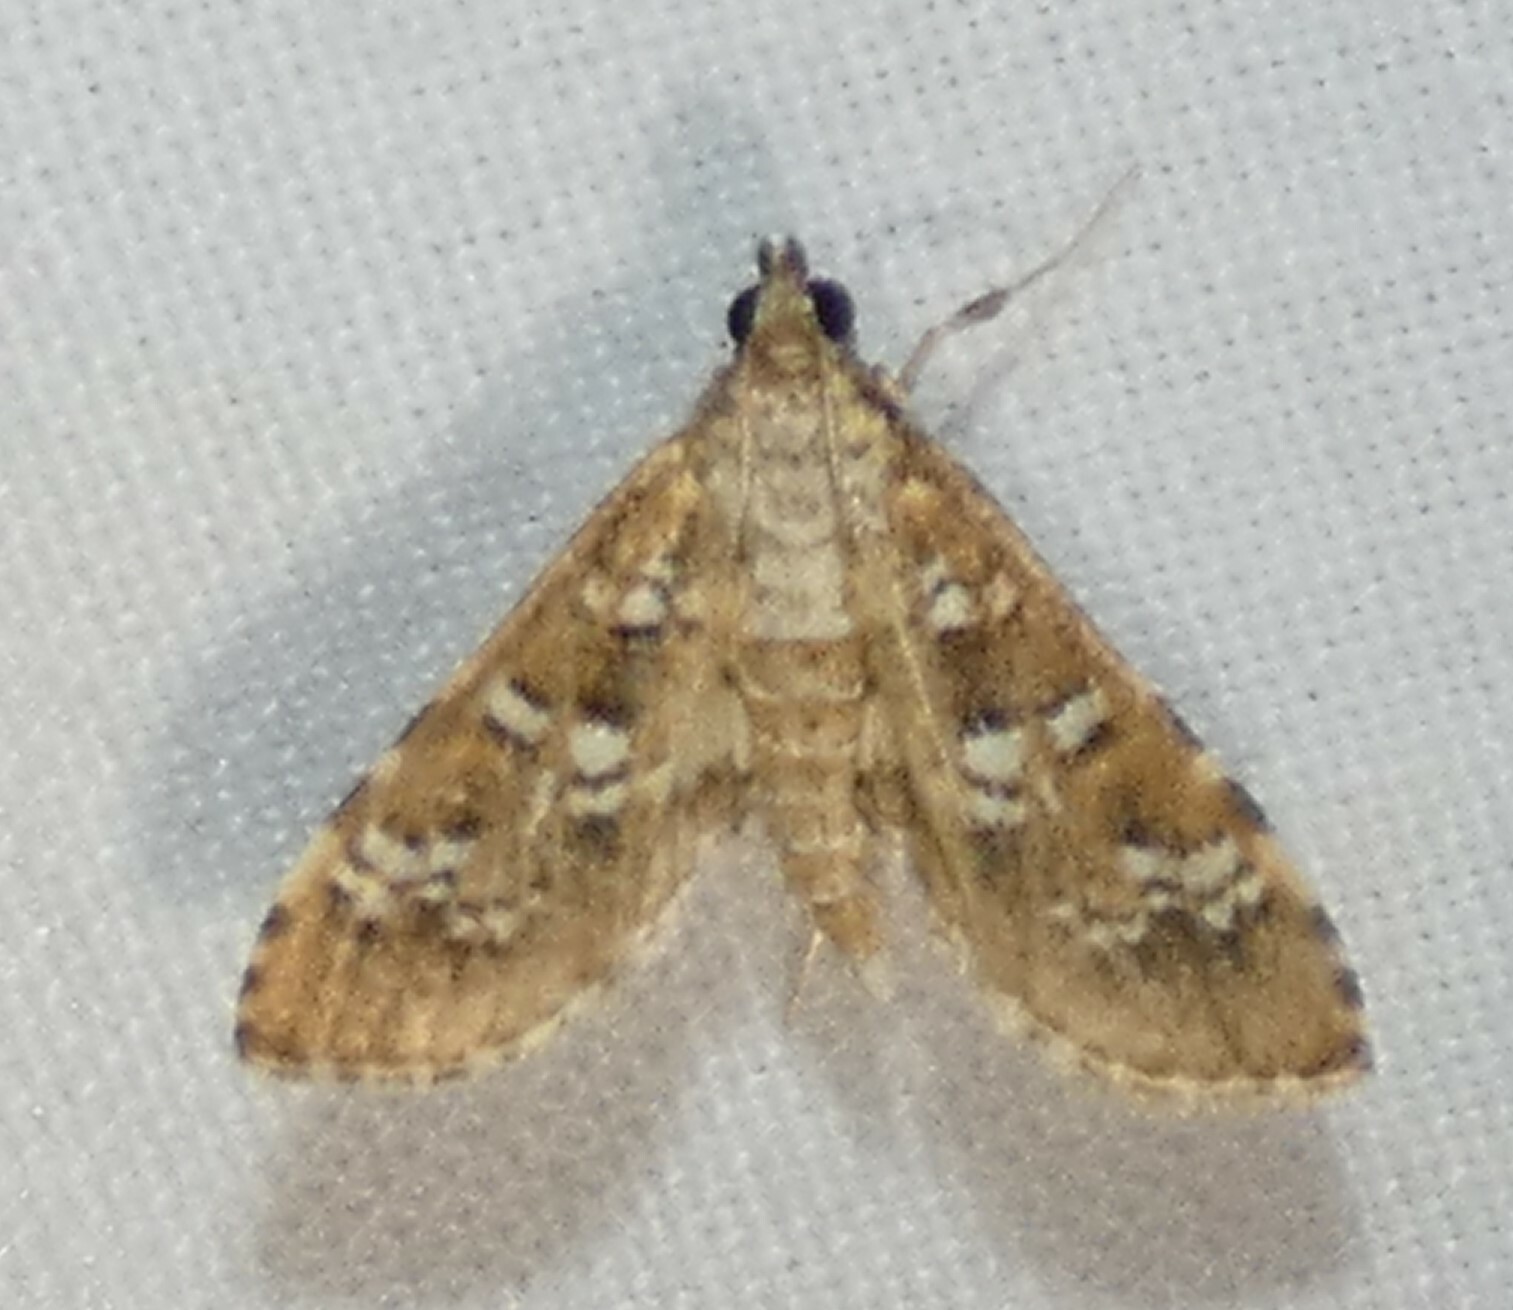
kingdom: Animalia
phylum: Arthropoda
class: Insecta
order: Lepidoptera
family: Crambidae
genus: Samea
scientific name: Samea multiplicalis
